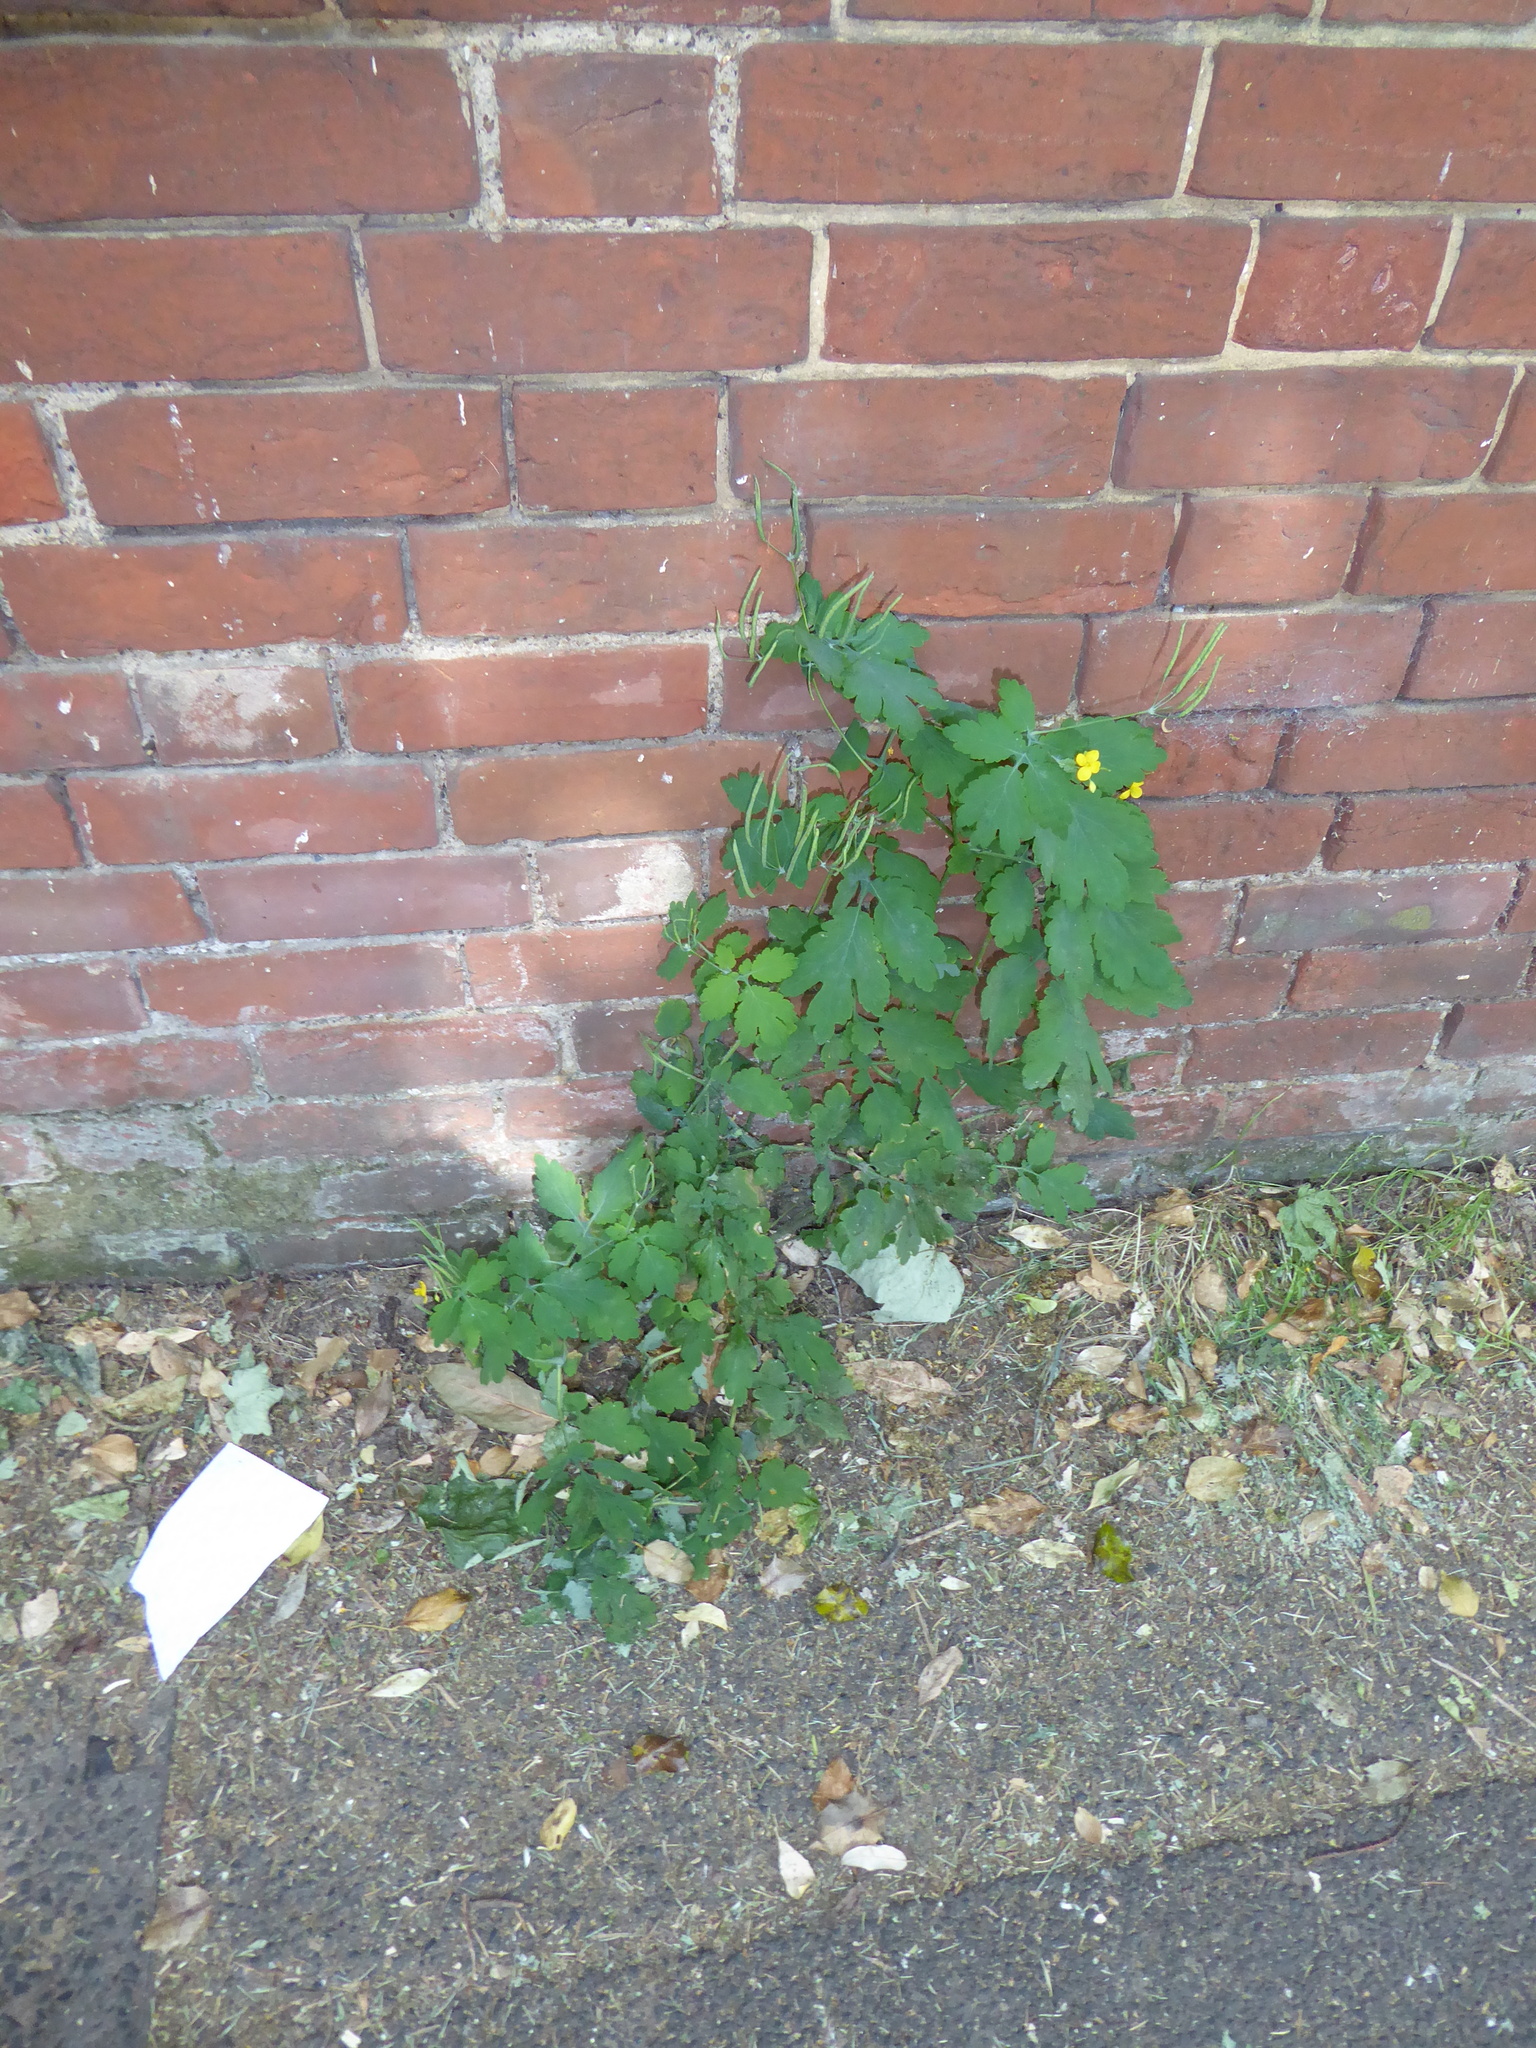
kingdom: Plantae
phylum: Tracheophyta
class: Magnoliopsida
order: Ranunculales
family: Papaveraceae
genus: Chelidonium
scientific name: Chelidonium majus
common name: Greater celandine
